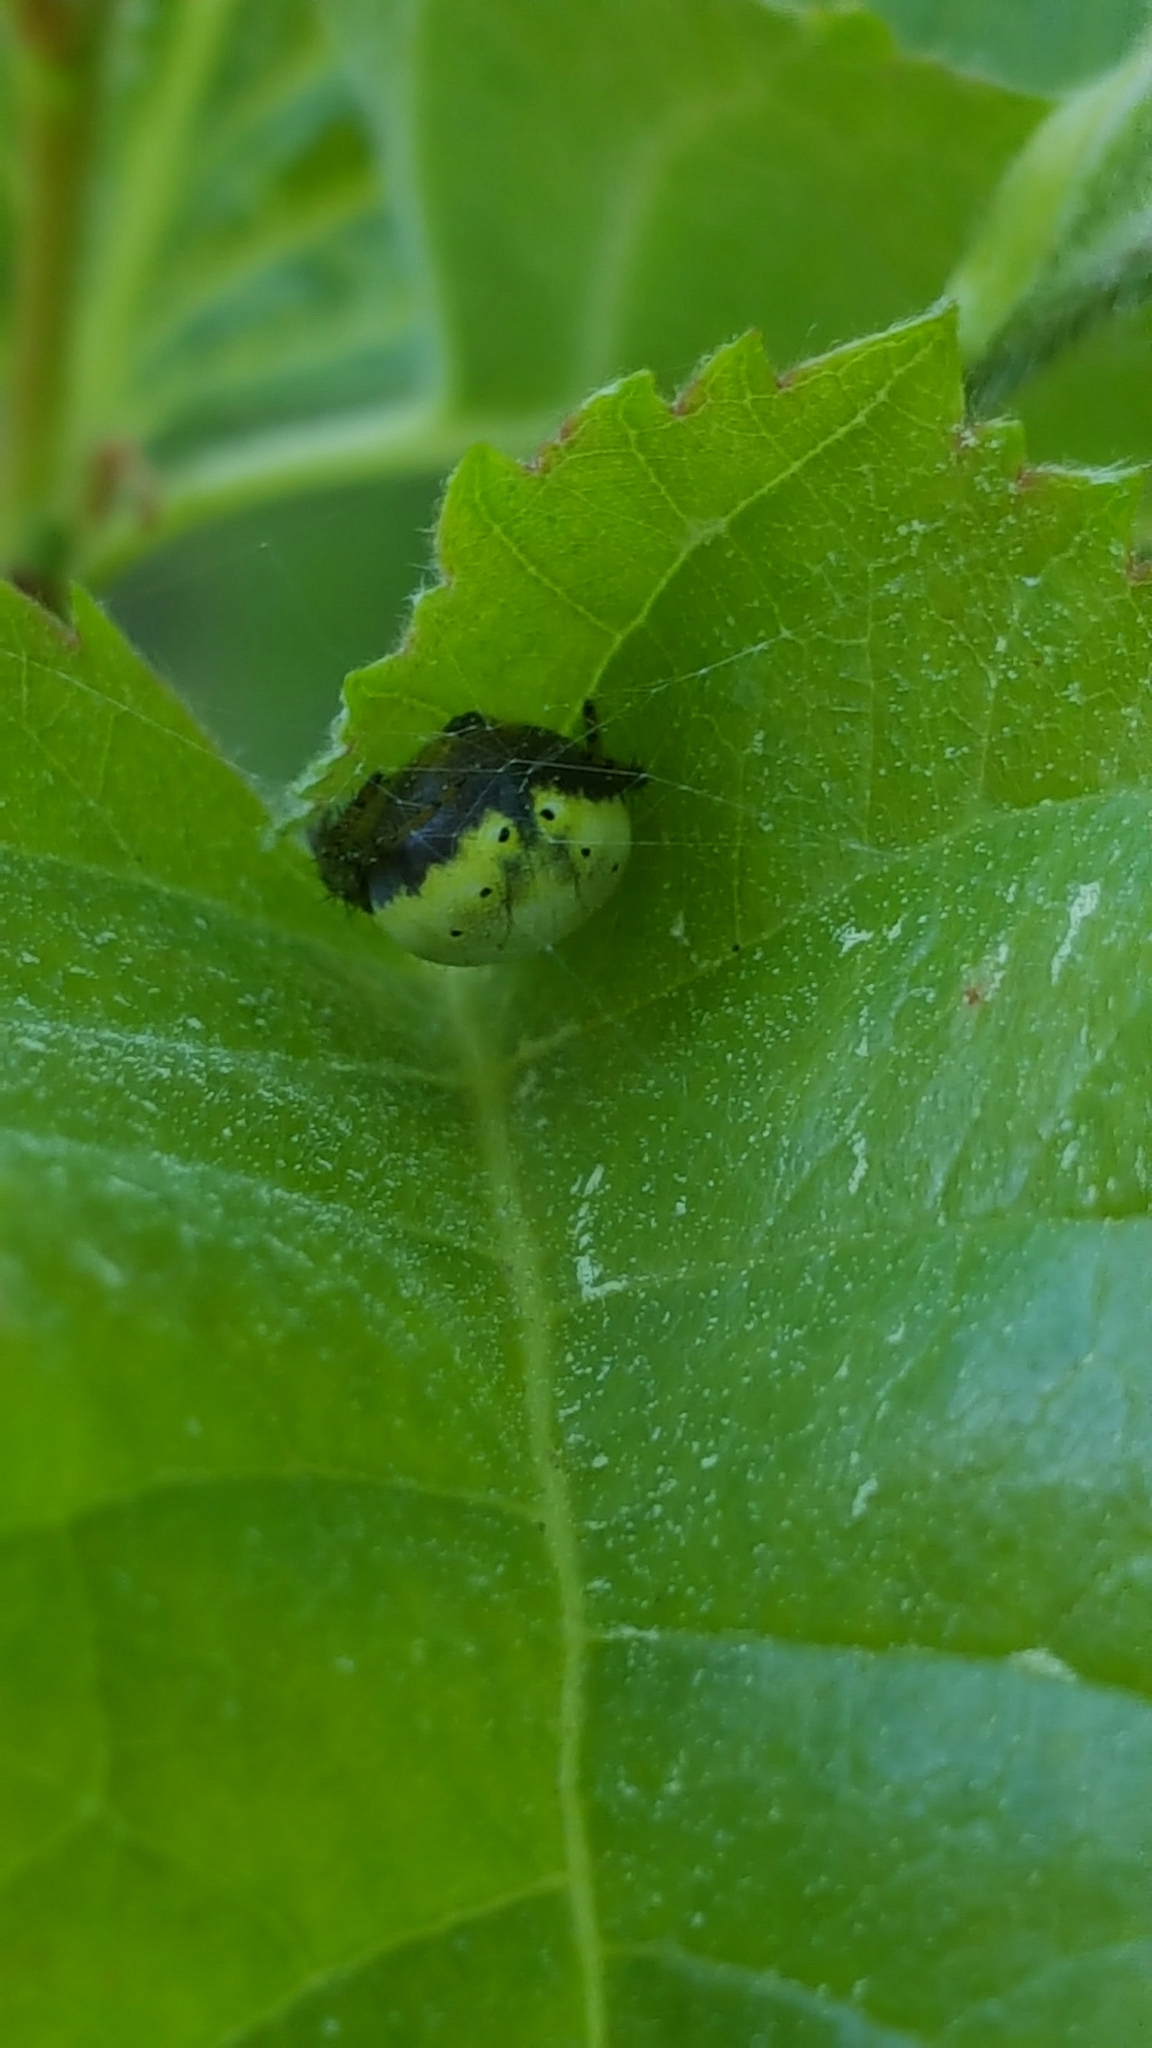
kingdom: Animalia
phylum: Arthropoda
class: Arachnida
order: Araneae
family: Araneidae
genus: Araniella
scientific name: Araniella displicata
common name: Sixspotted orb weaver
